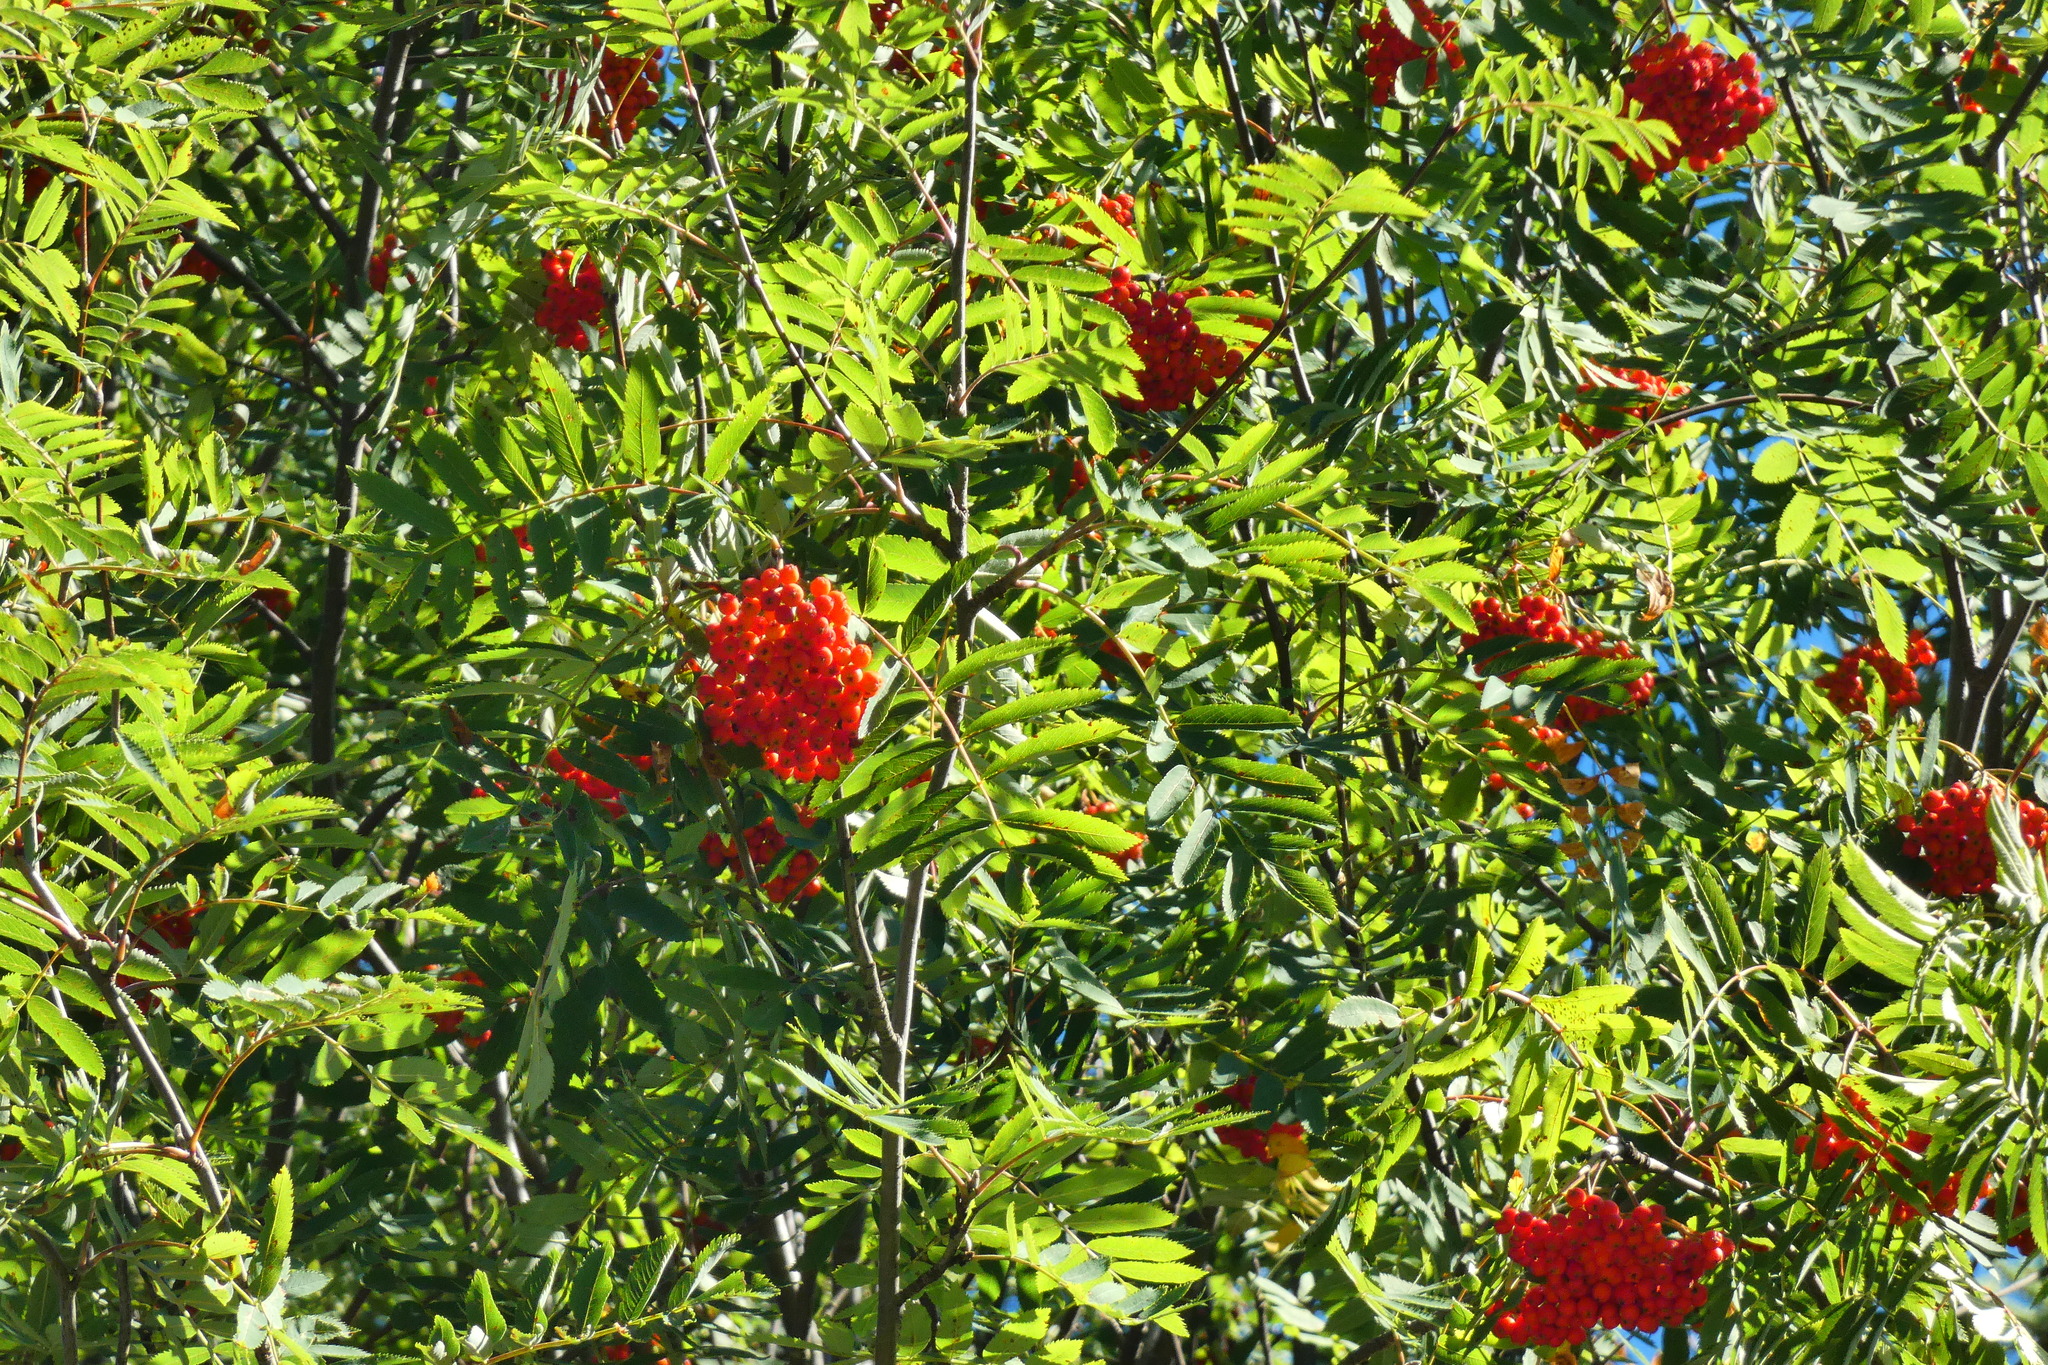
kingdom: Plantae
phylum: Tracheophyta
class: Magnoliopsida
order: Rosales
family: Rosaceae
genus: Sorbus
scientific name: Sorbus aucuparia
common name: Rowan
